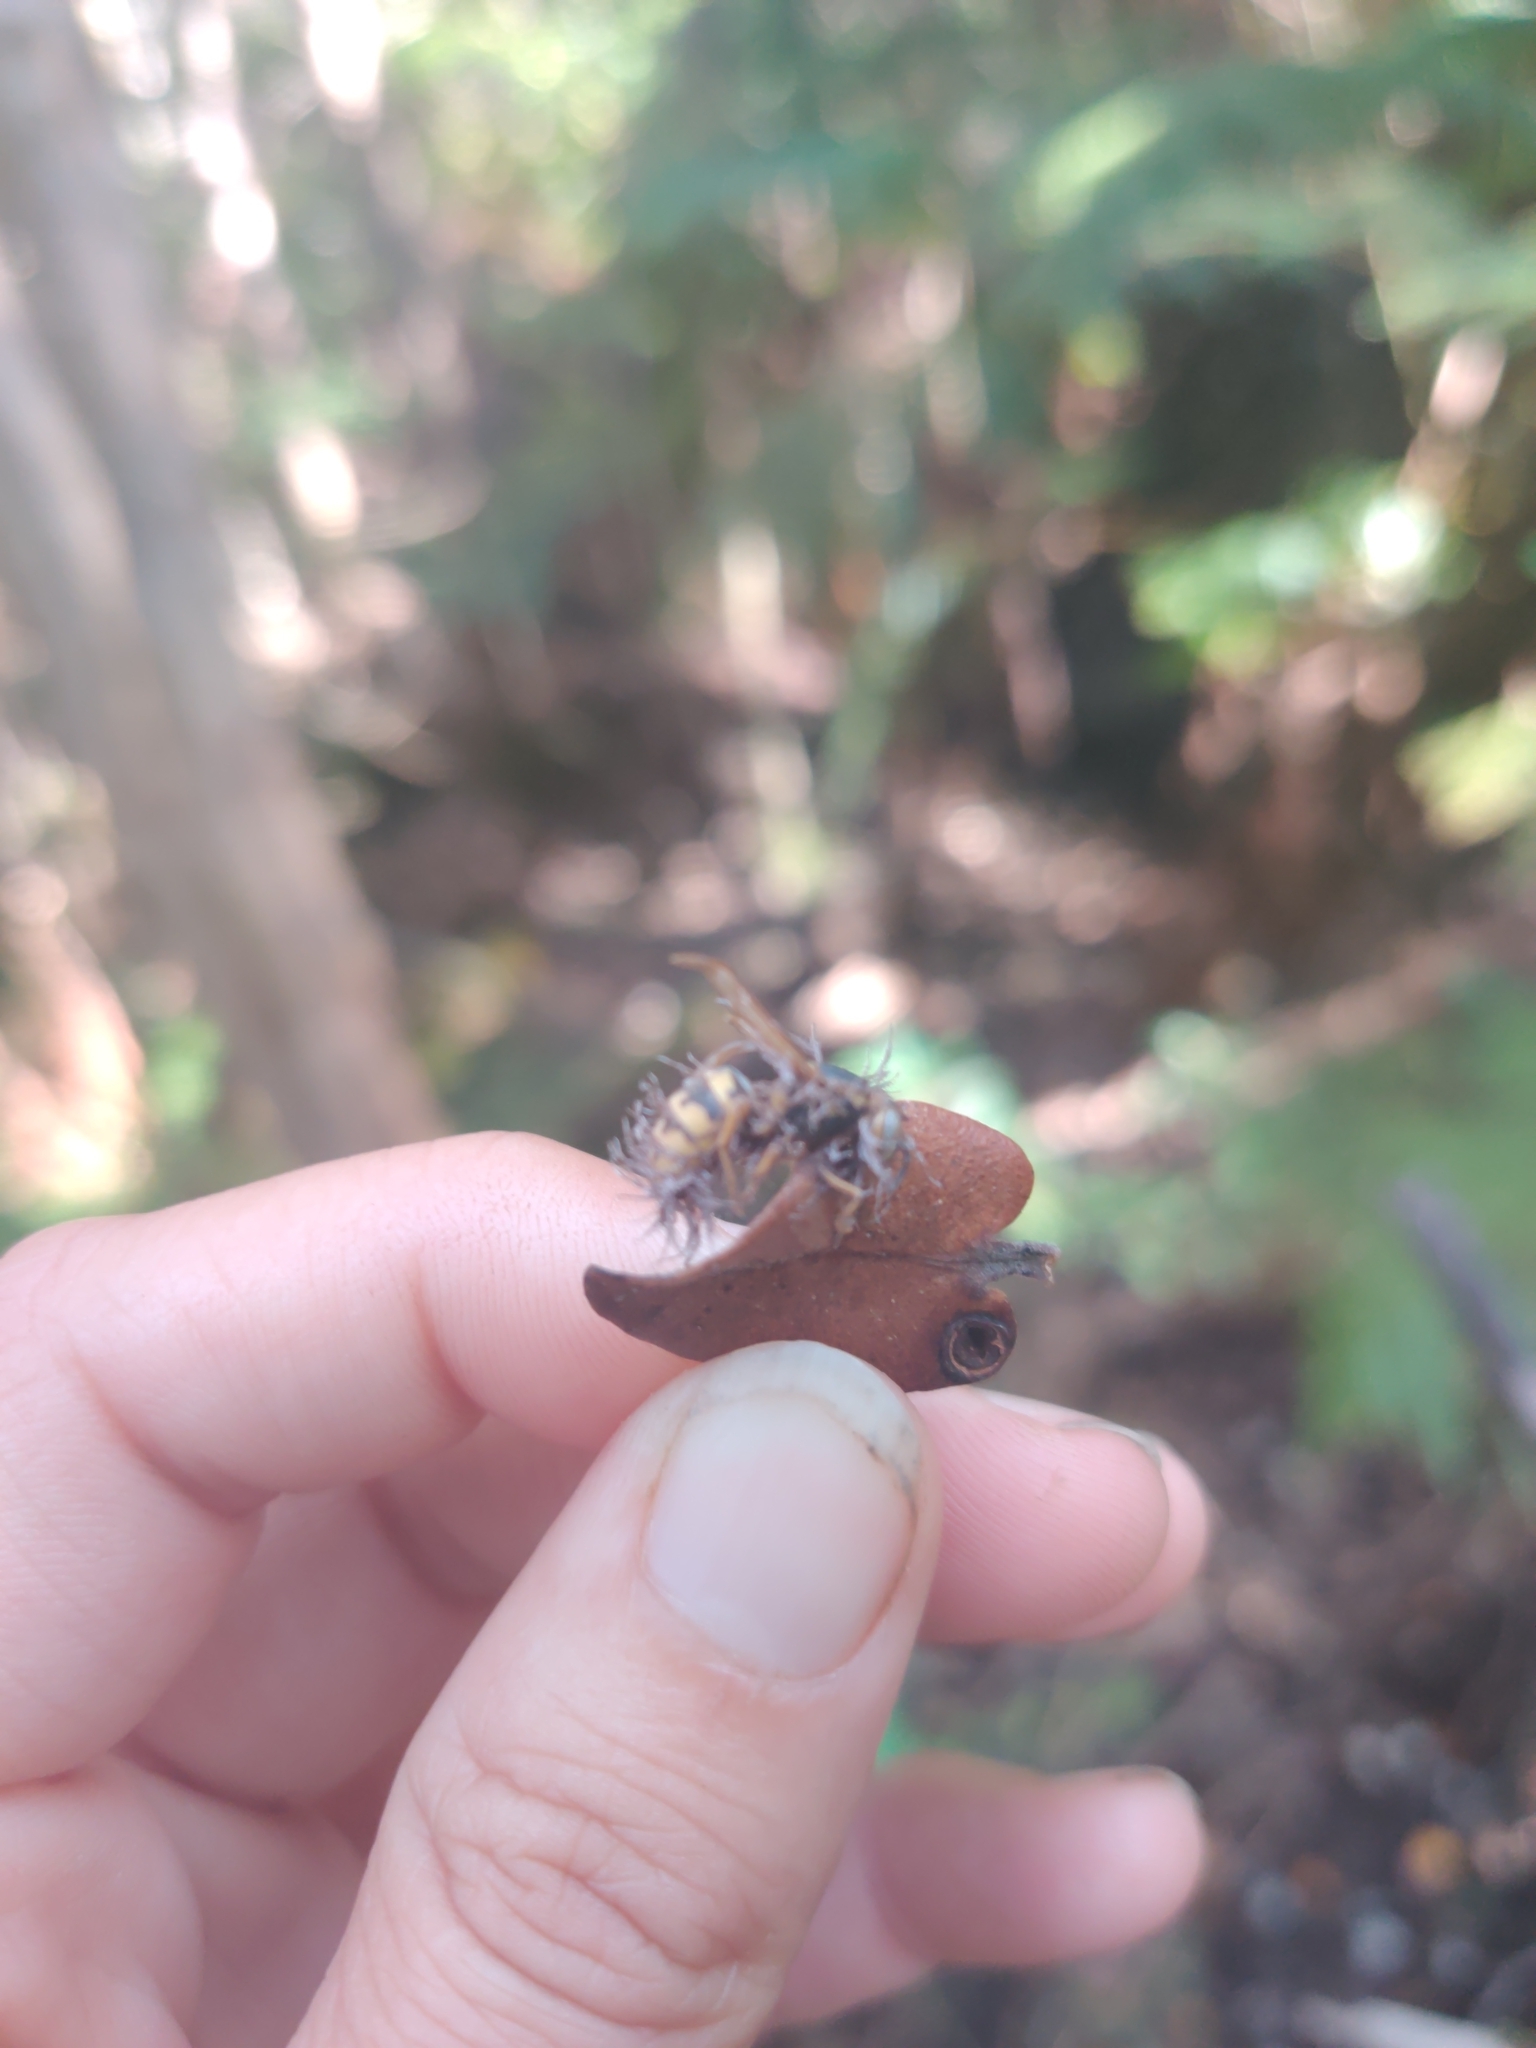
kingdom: Fungi
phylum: Ascomycota
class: Sordariomycetes
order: Hypocreales
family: Ophiocordycipitaceae
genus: Ophiocordyceps
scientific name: Ophiocordyceps humbertii
